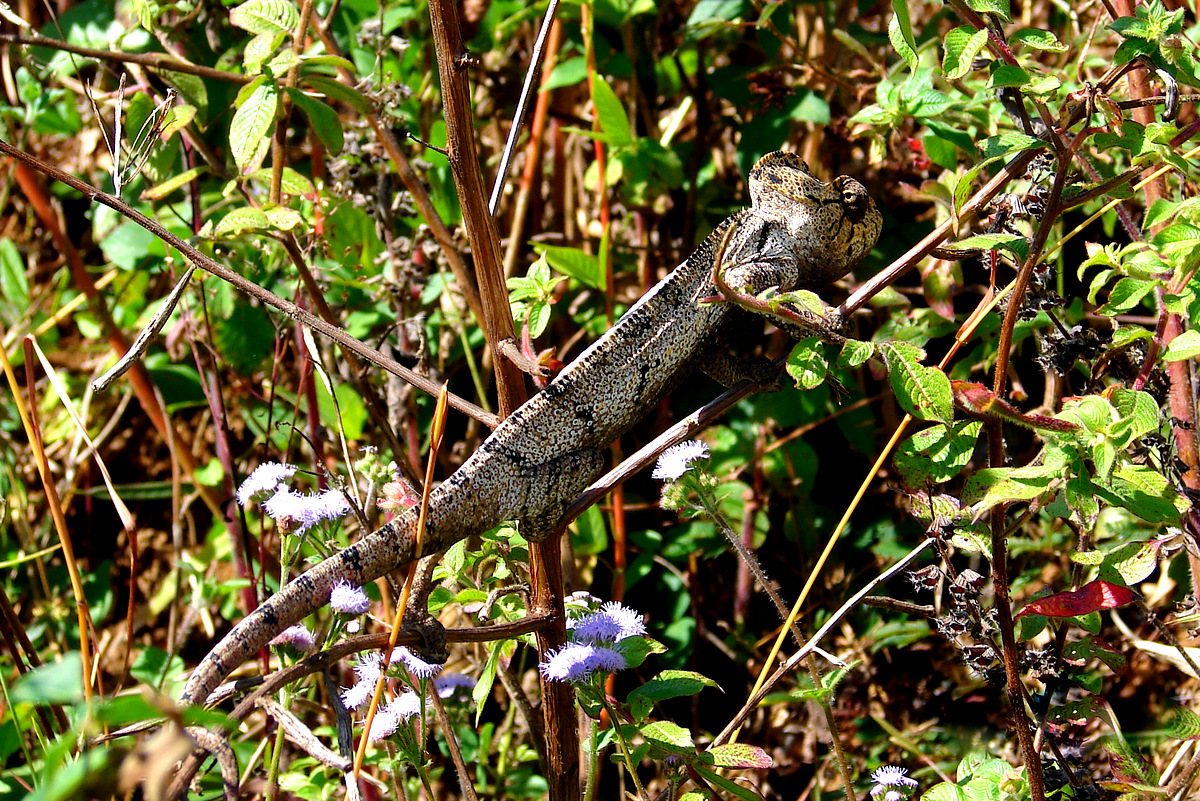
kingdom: Animalia
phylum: Chordata
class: Squamata
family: Chamaeleonidae
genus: Furcifer
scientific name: Furcifer oustaleti
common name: Oustalet's chameleon
